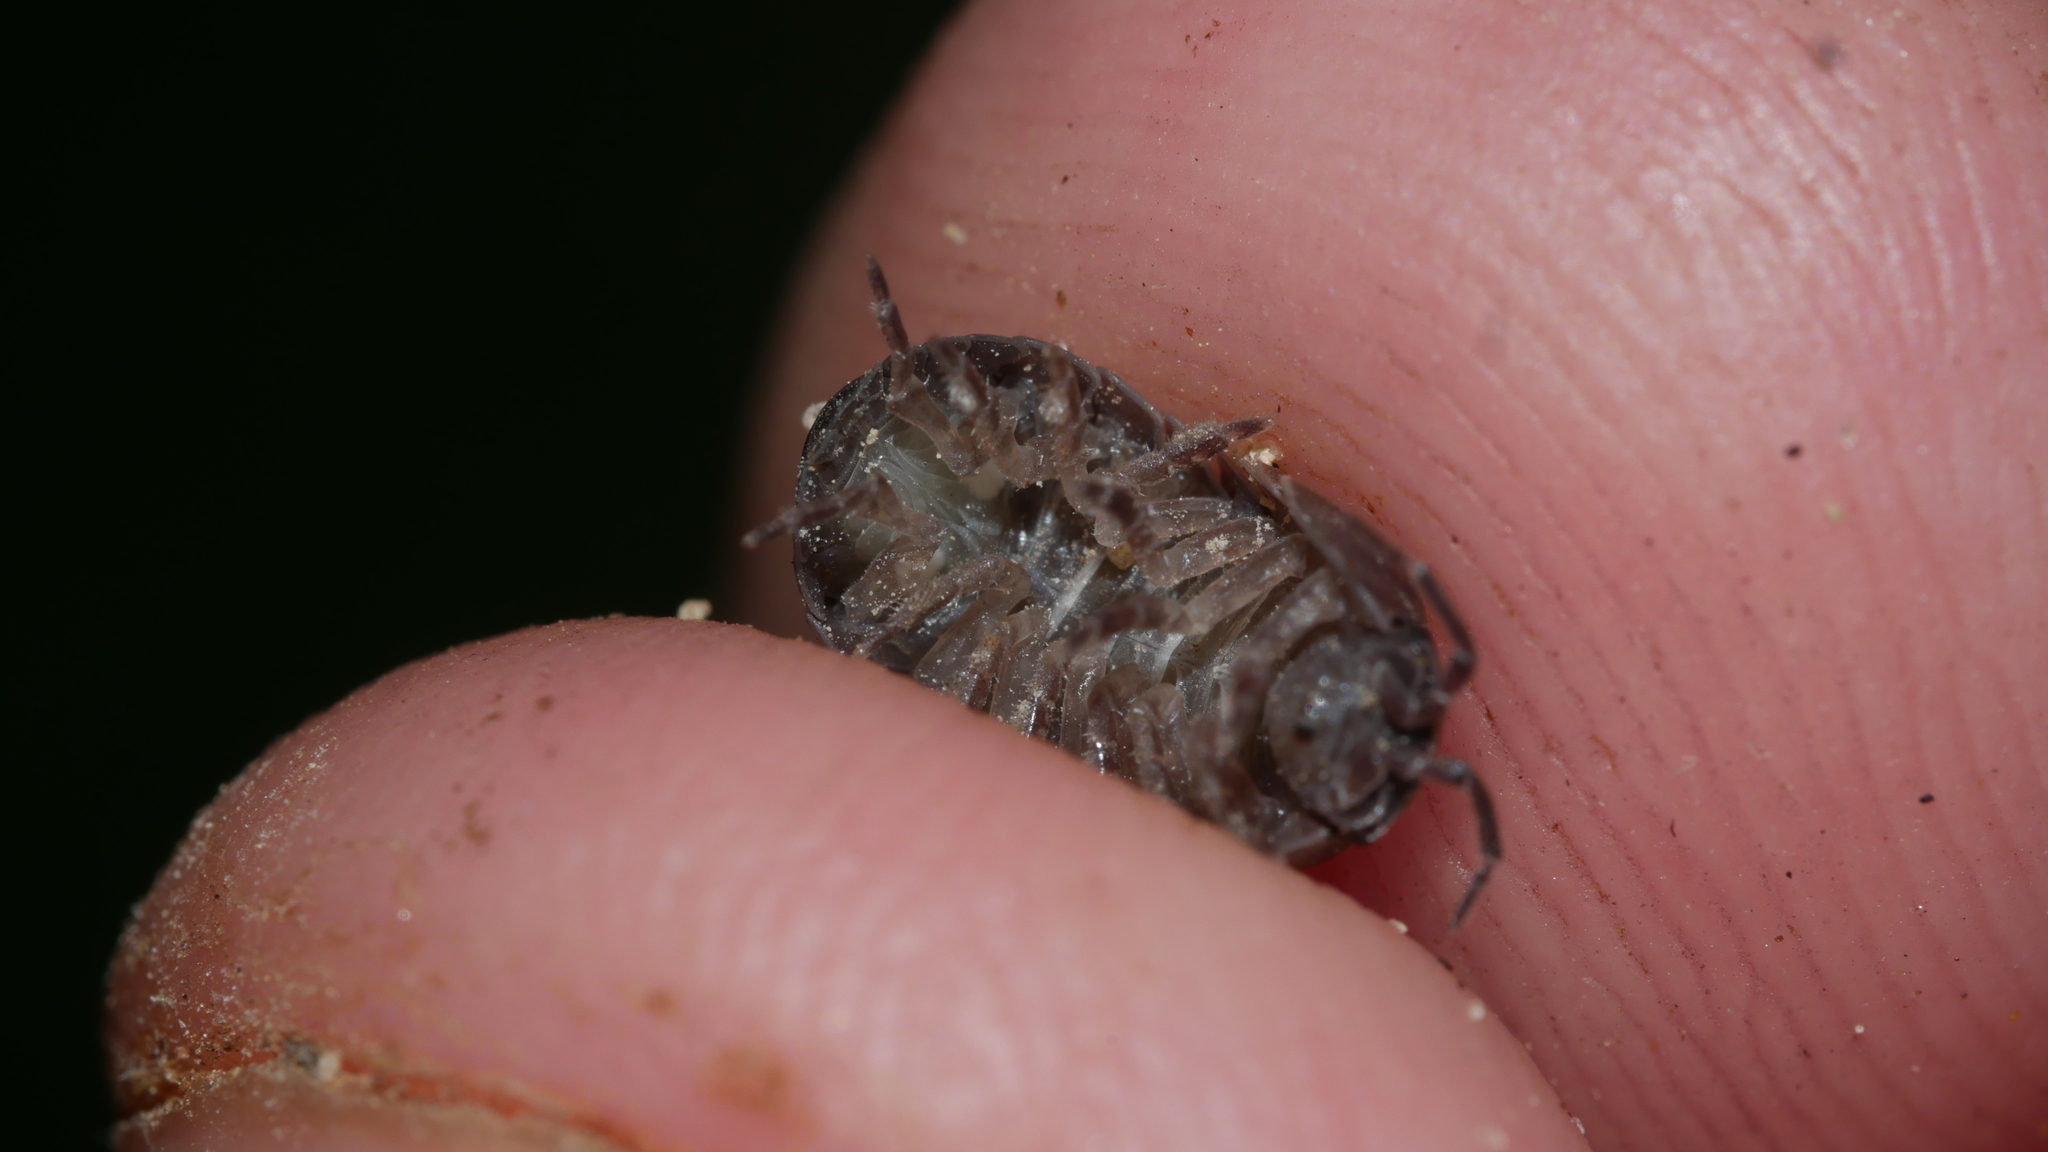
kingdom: Animalia
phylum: Arthropoda
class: Malacostraca
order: Isopoda
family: Armadillidiidae
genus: Armadillidium
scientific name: Armadillidium vulgare
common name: Common pill woodlouse
